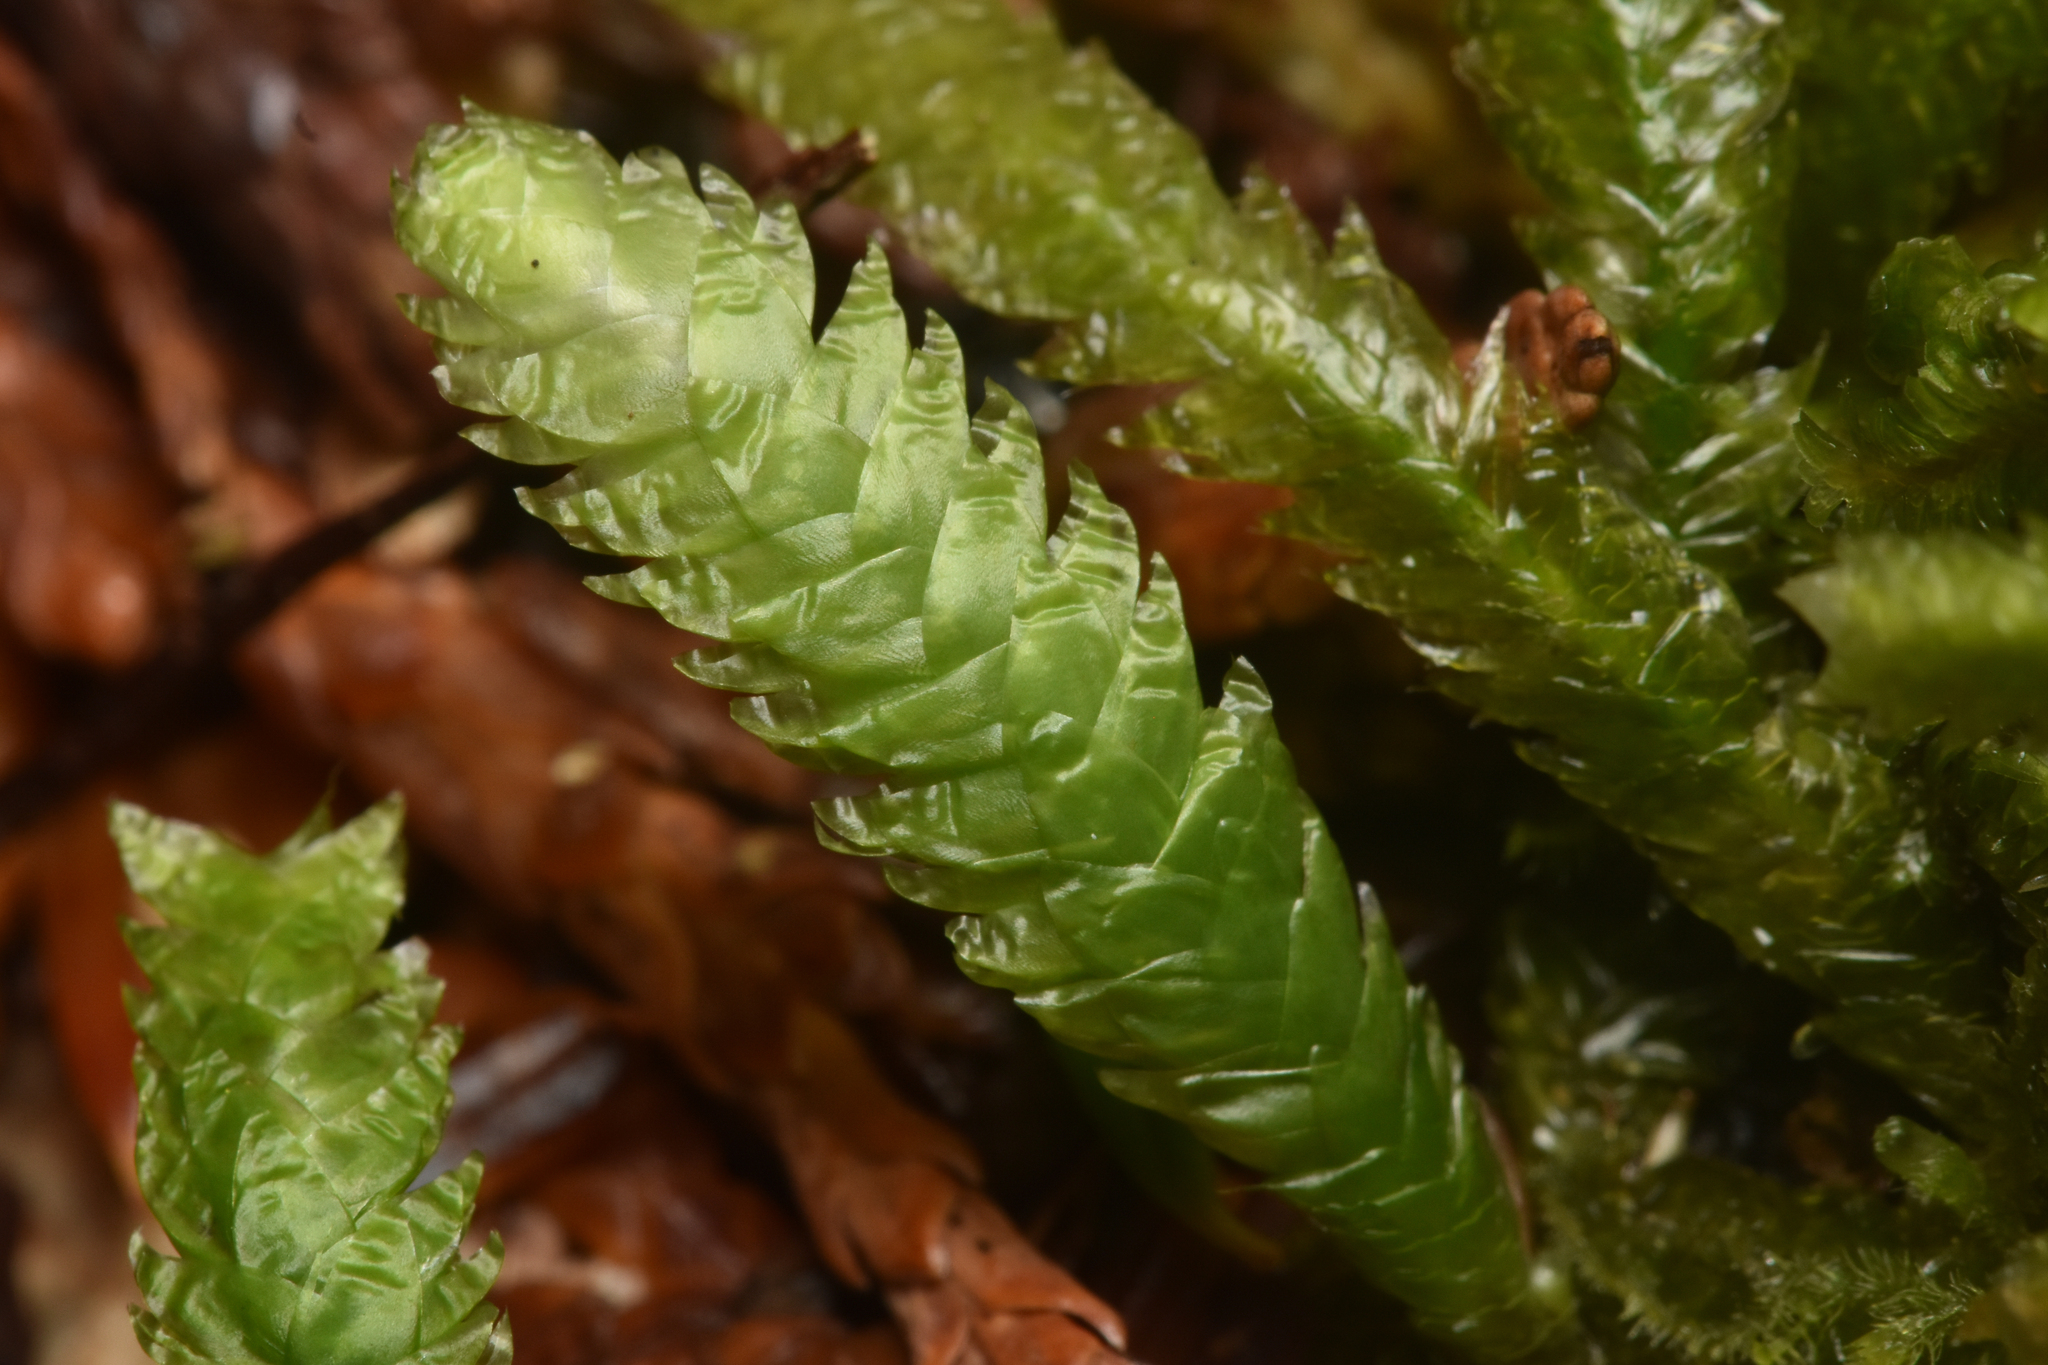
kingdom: Plantae
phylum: Bryophyta
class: Bryopsida
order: Hypnales
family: Plagiotheciaceae
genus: Plagiothecium
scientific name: Plagiothecium undulatum
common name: Waved silk-moss
